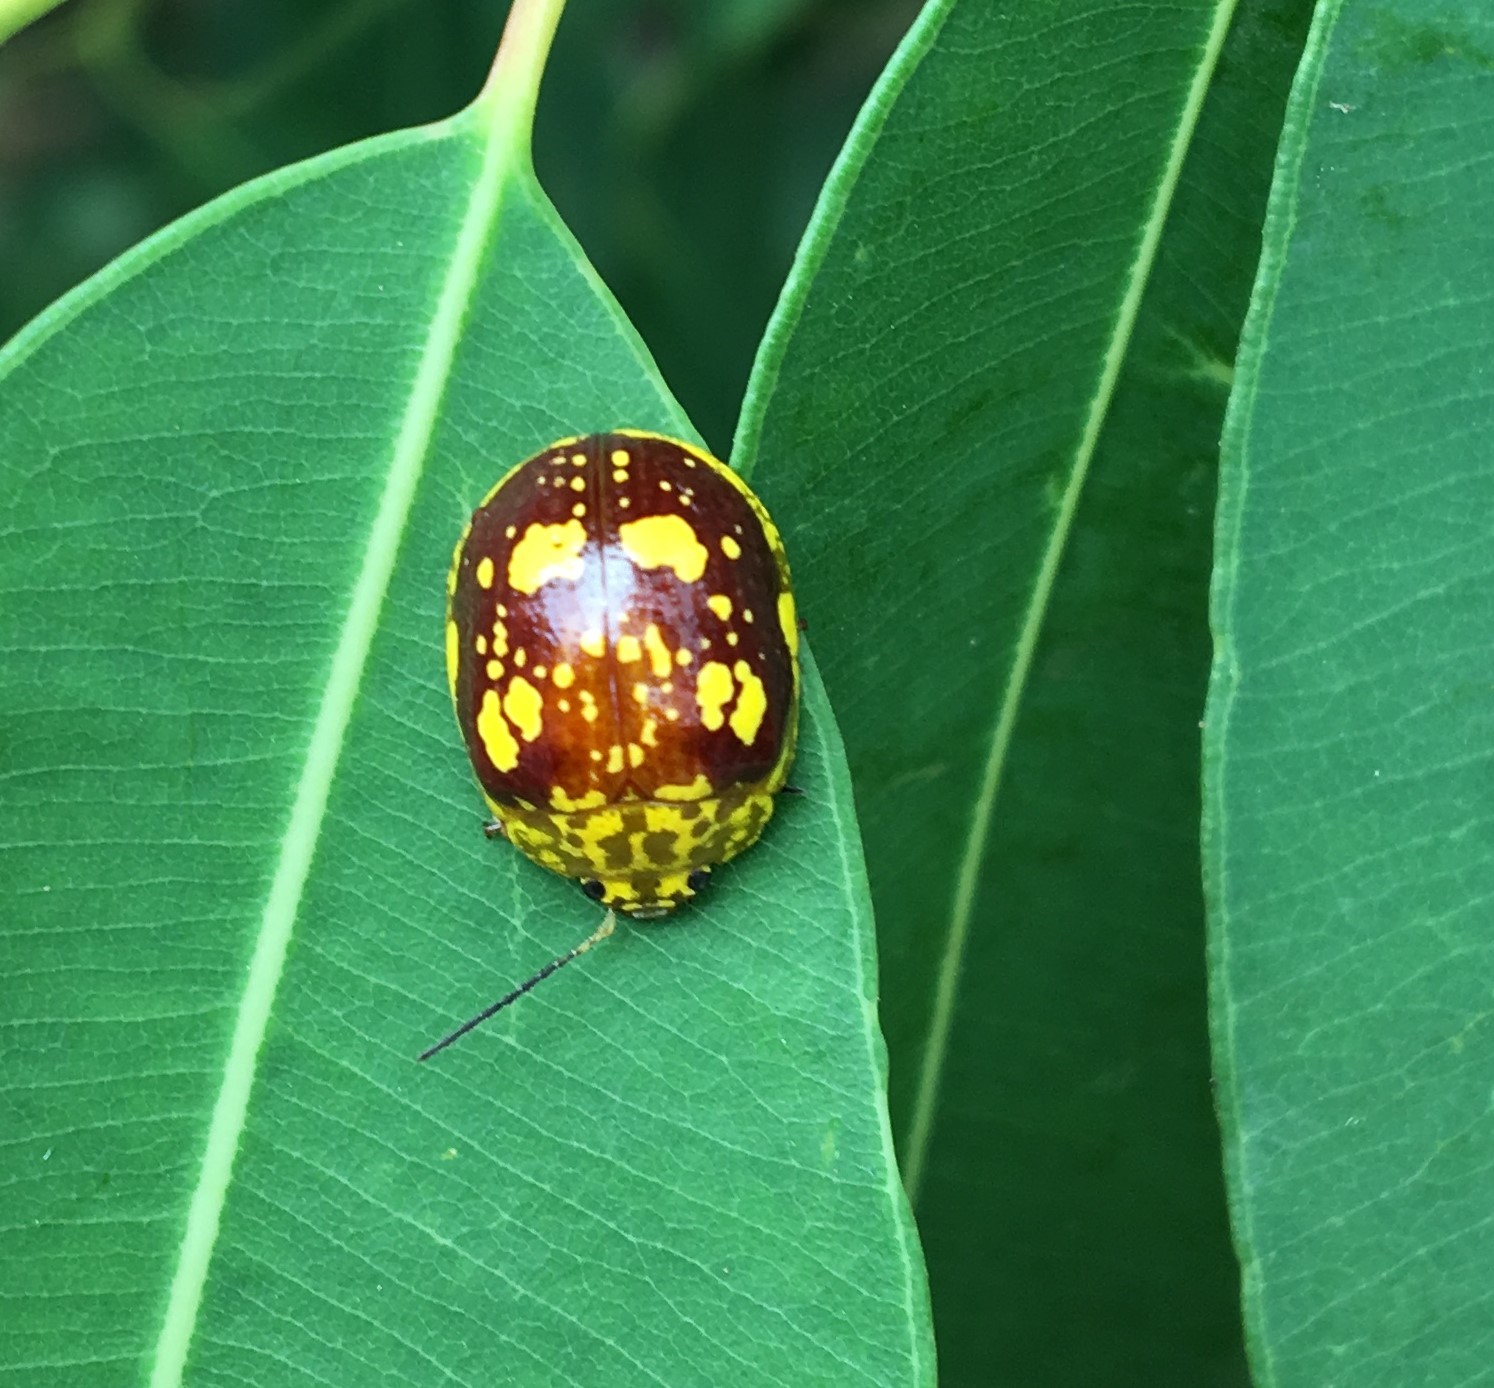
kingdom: Animalia
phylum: Arthropoda
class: Insecta
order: Coleoptera
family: Chrysomelidae
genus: Paropsis
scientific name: Paropsis maculata
